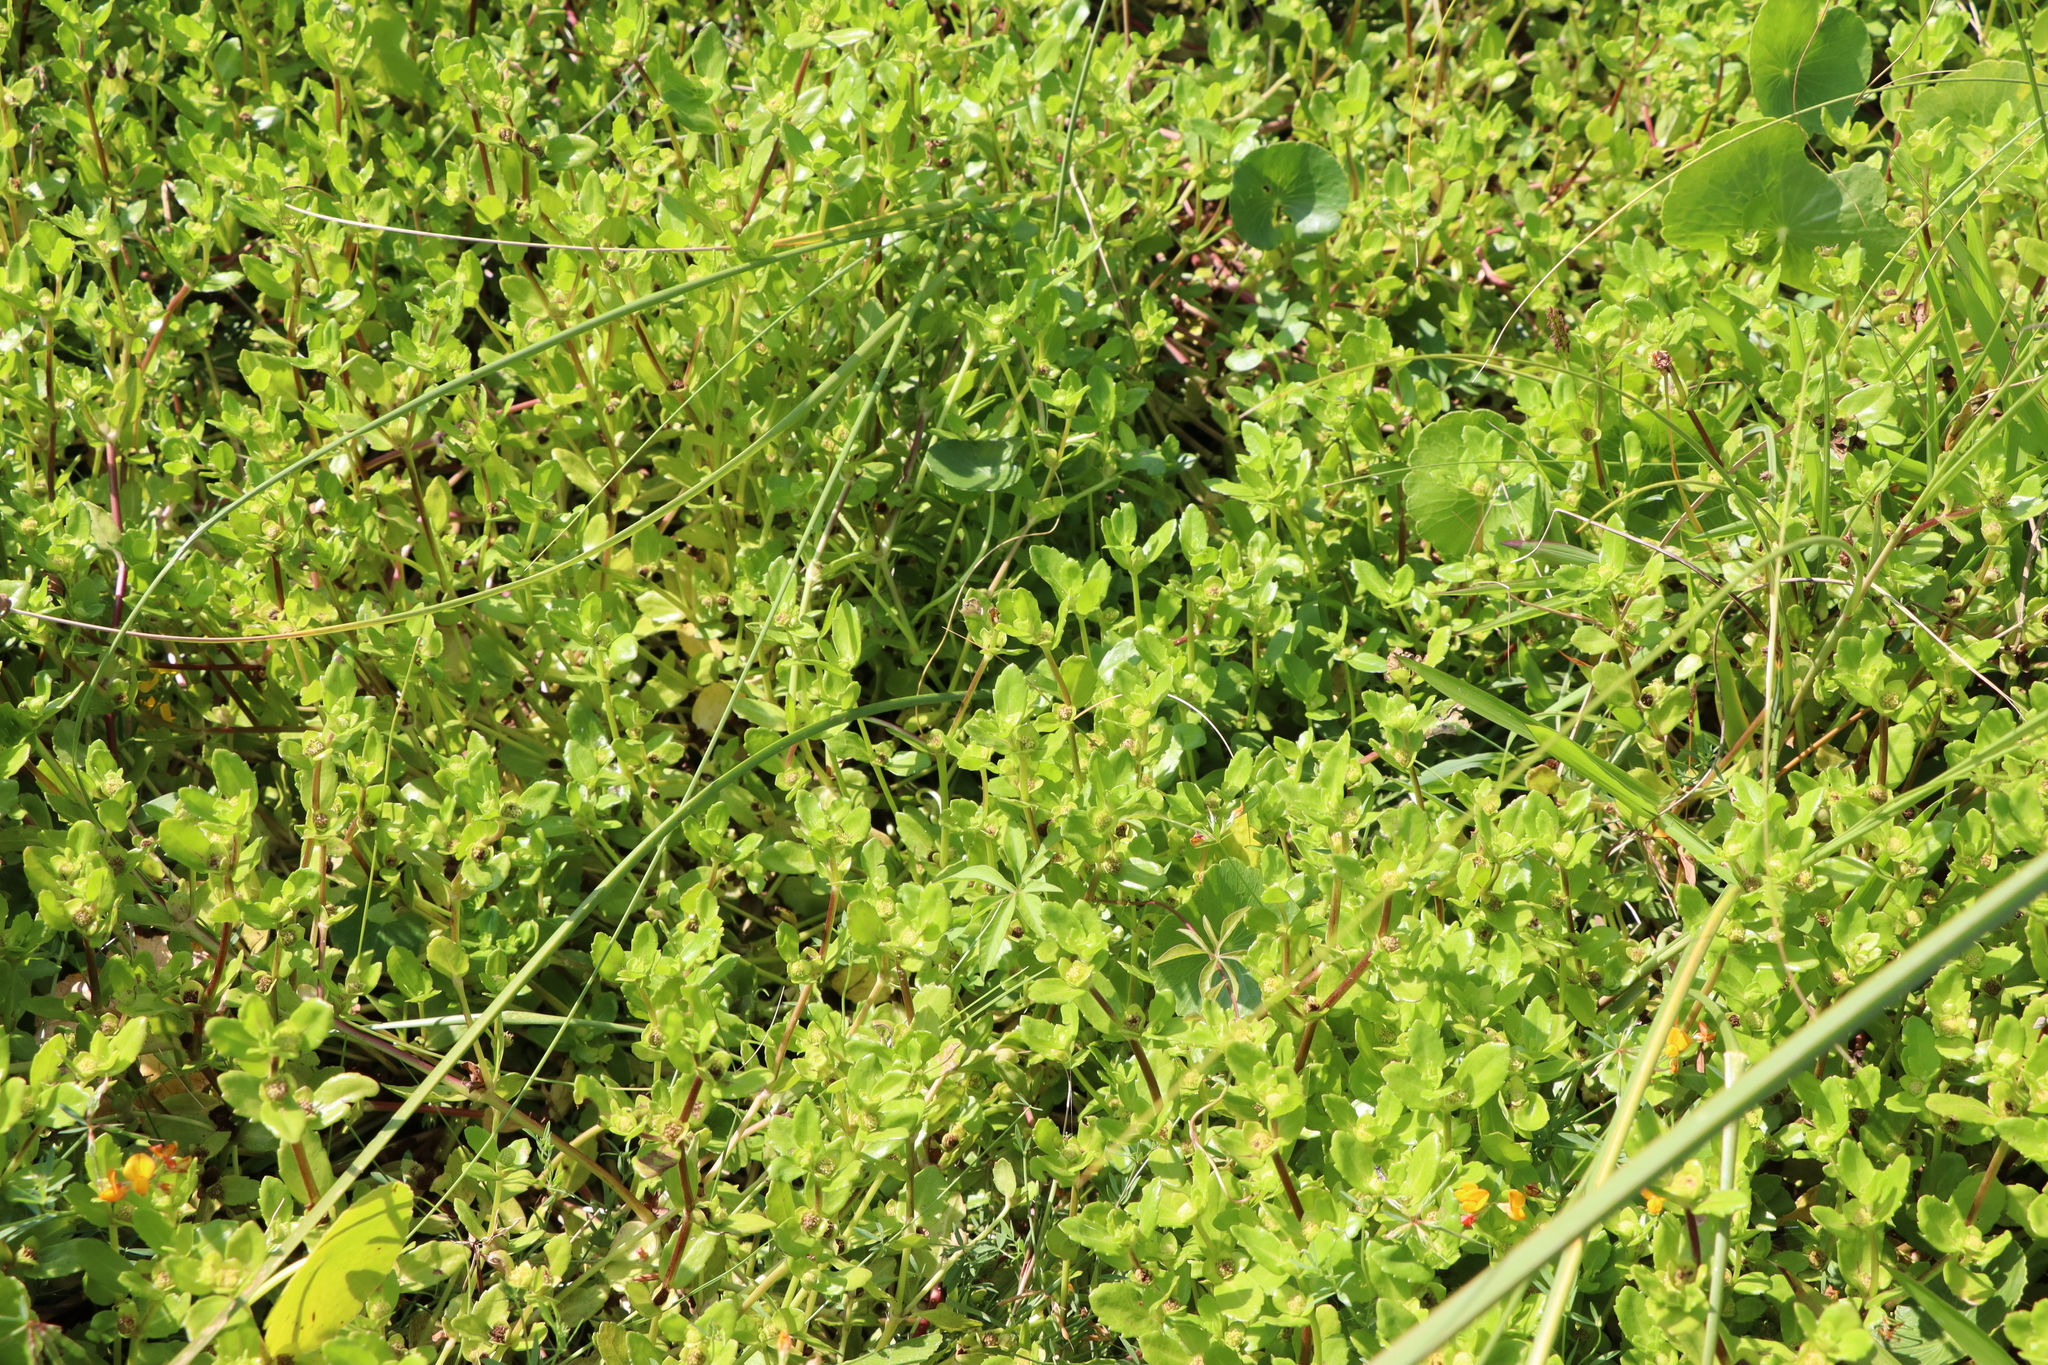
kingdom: Plantae
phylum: Tracheophyta
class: Magnoliopsida
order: Asterales
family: Asteraceae
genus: Enydra
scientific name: Enydra sessilis
